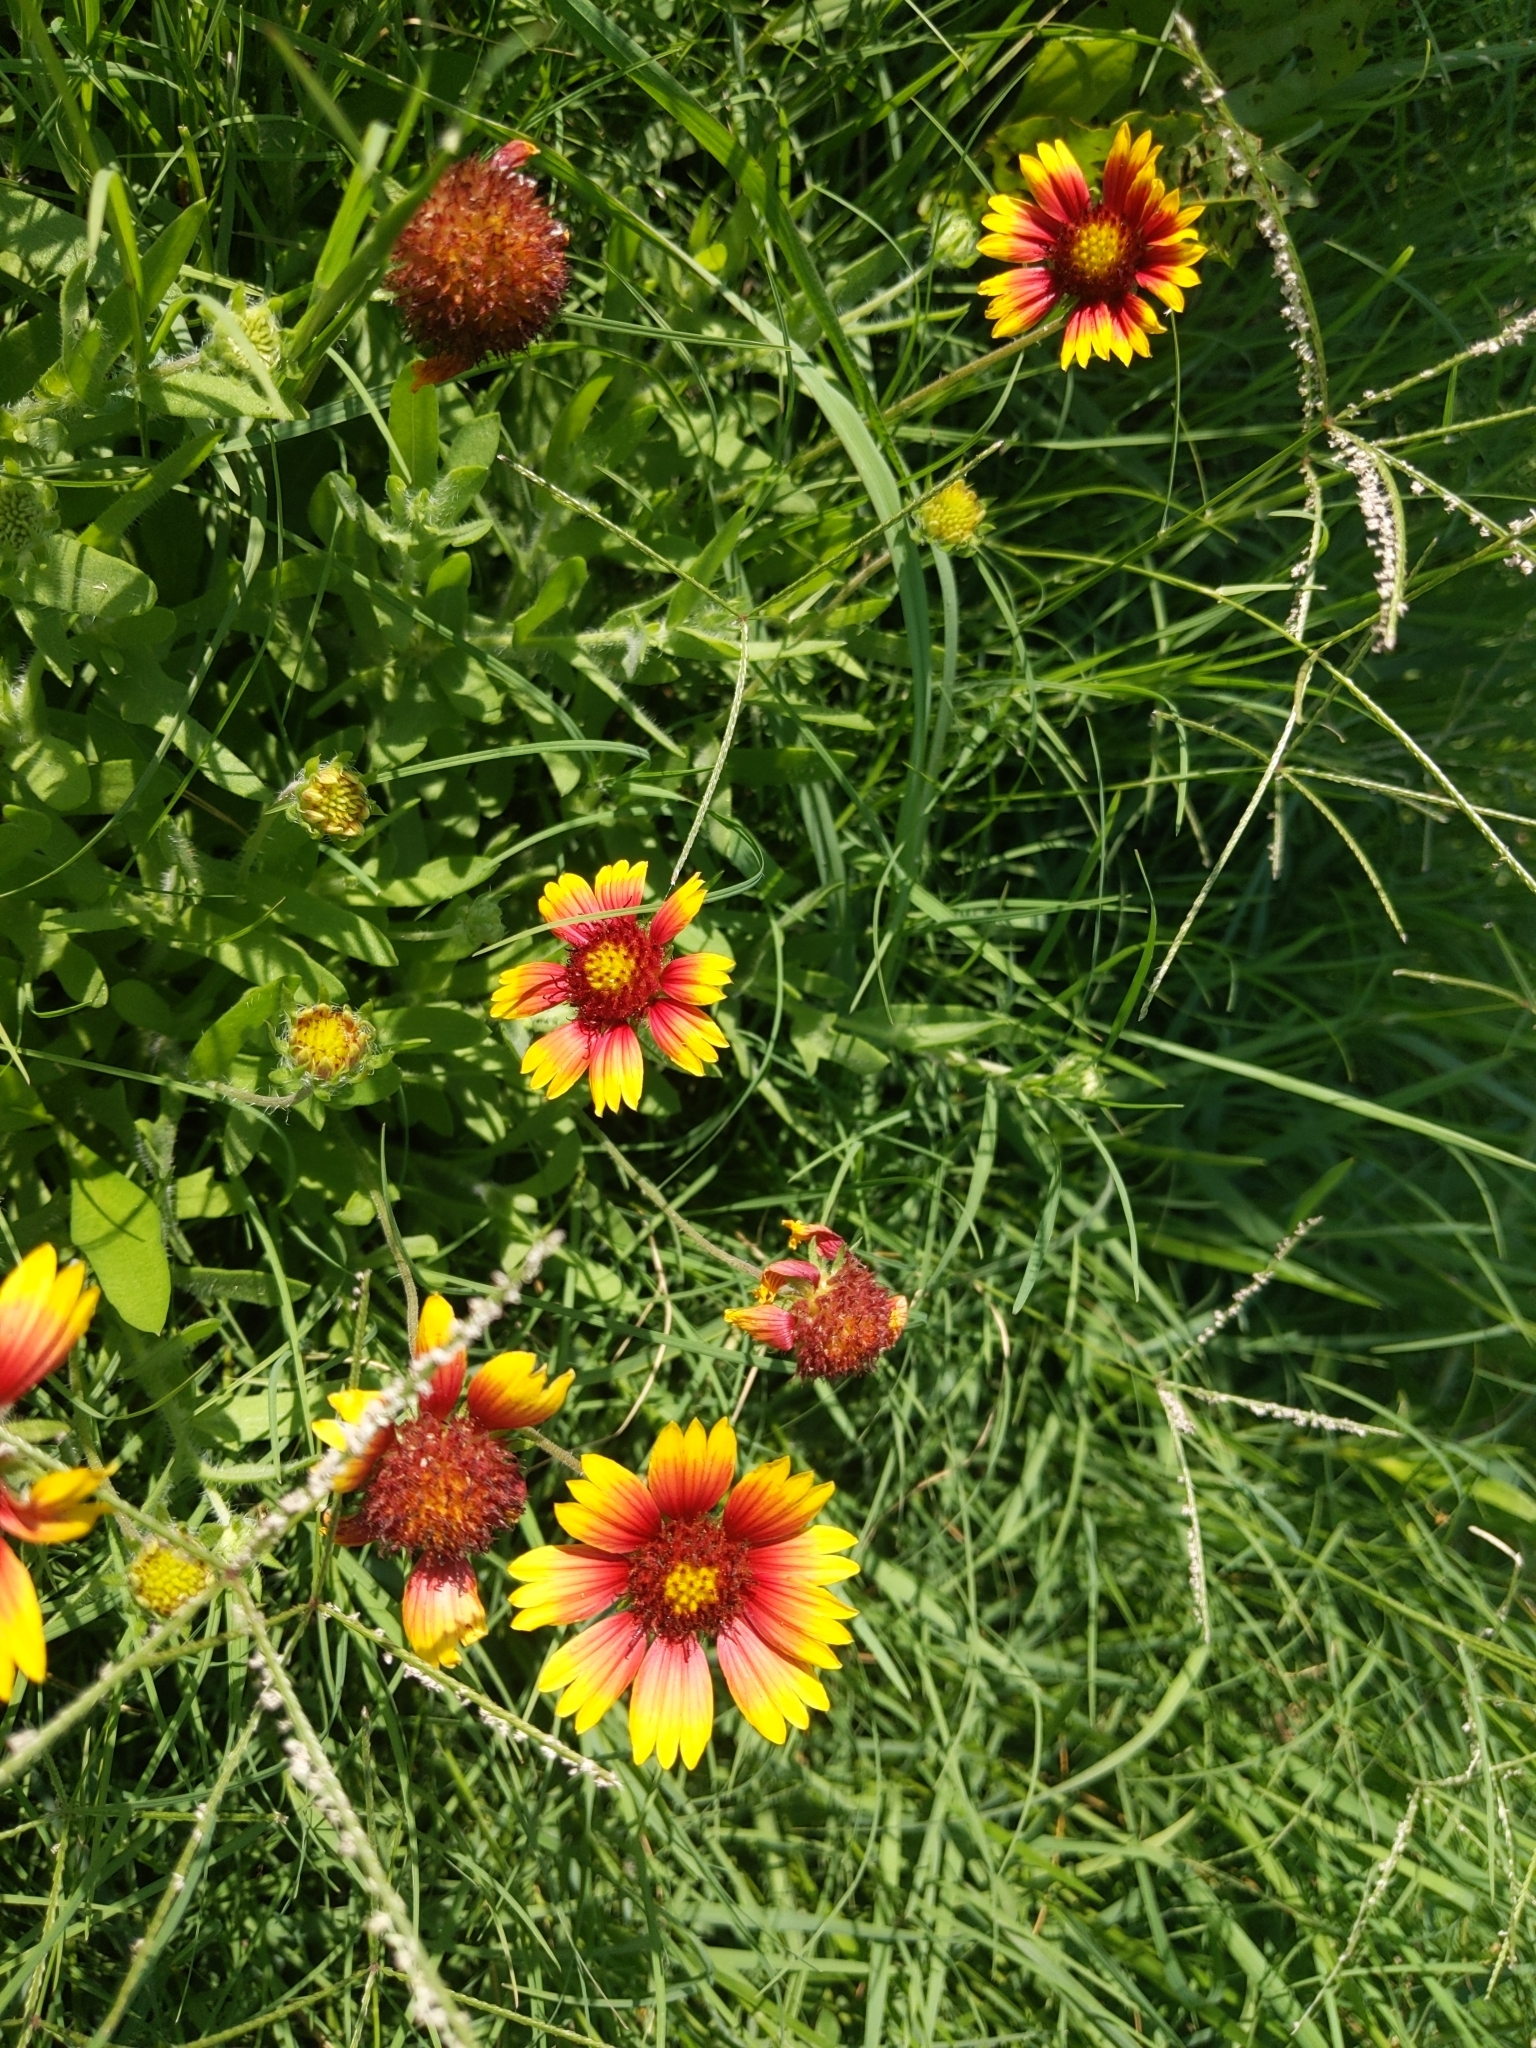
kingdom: Plantae
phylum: Tracheophyta
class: Magnoliopsida
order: Asterales
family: Asteraceae
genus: Gaillardia
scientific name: Gaillardia pulchella
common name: Firewheel
